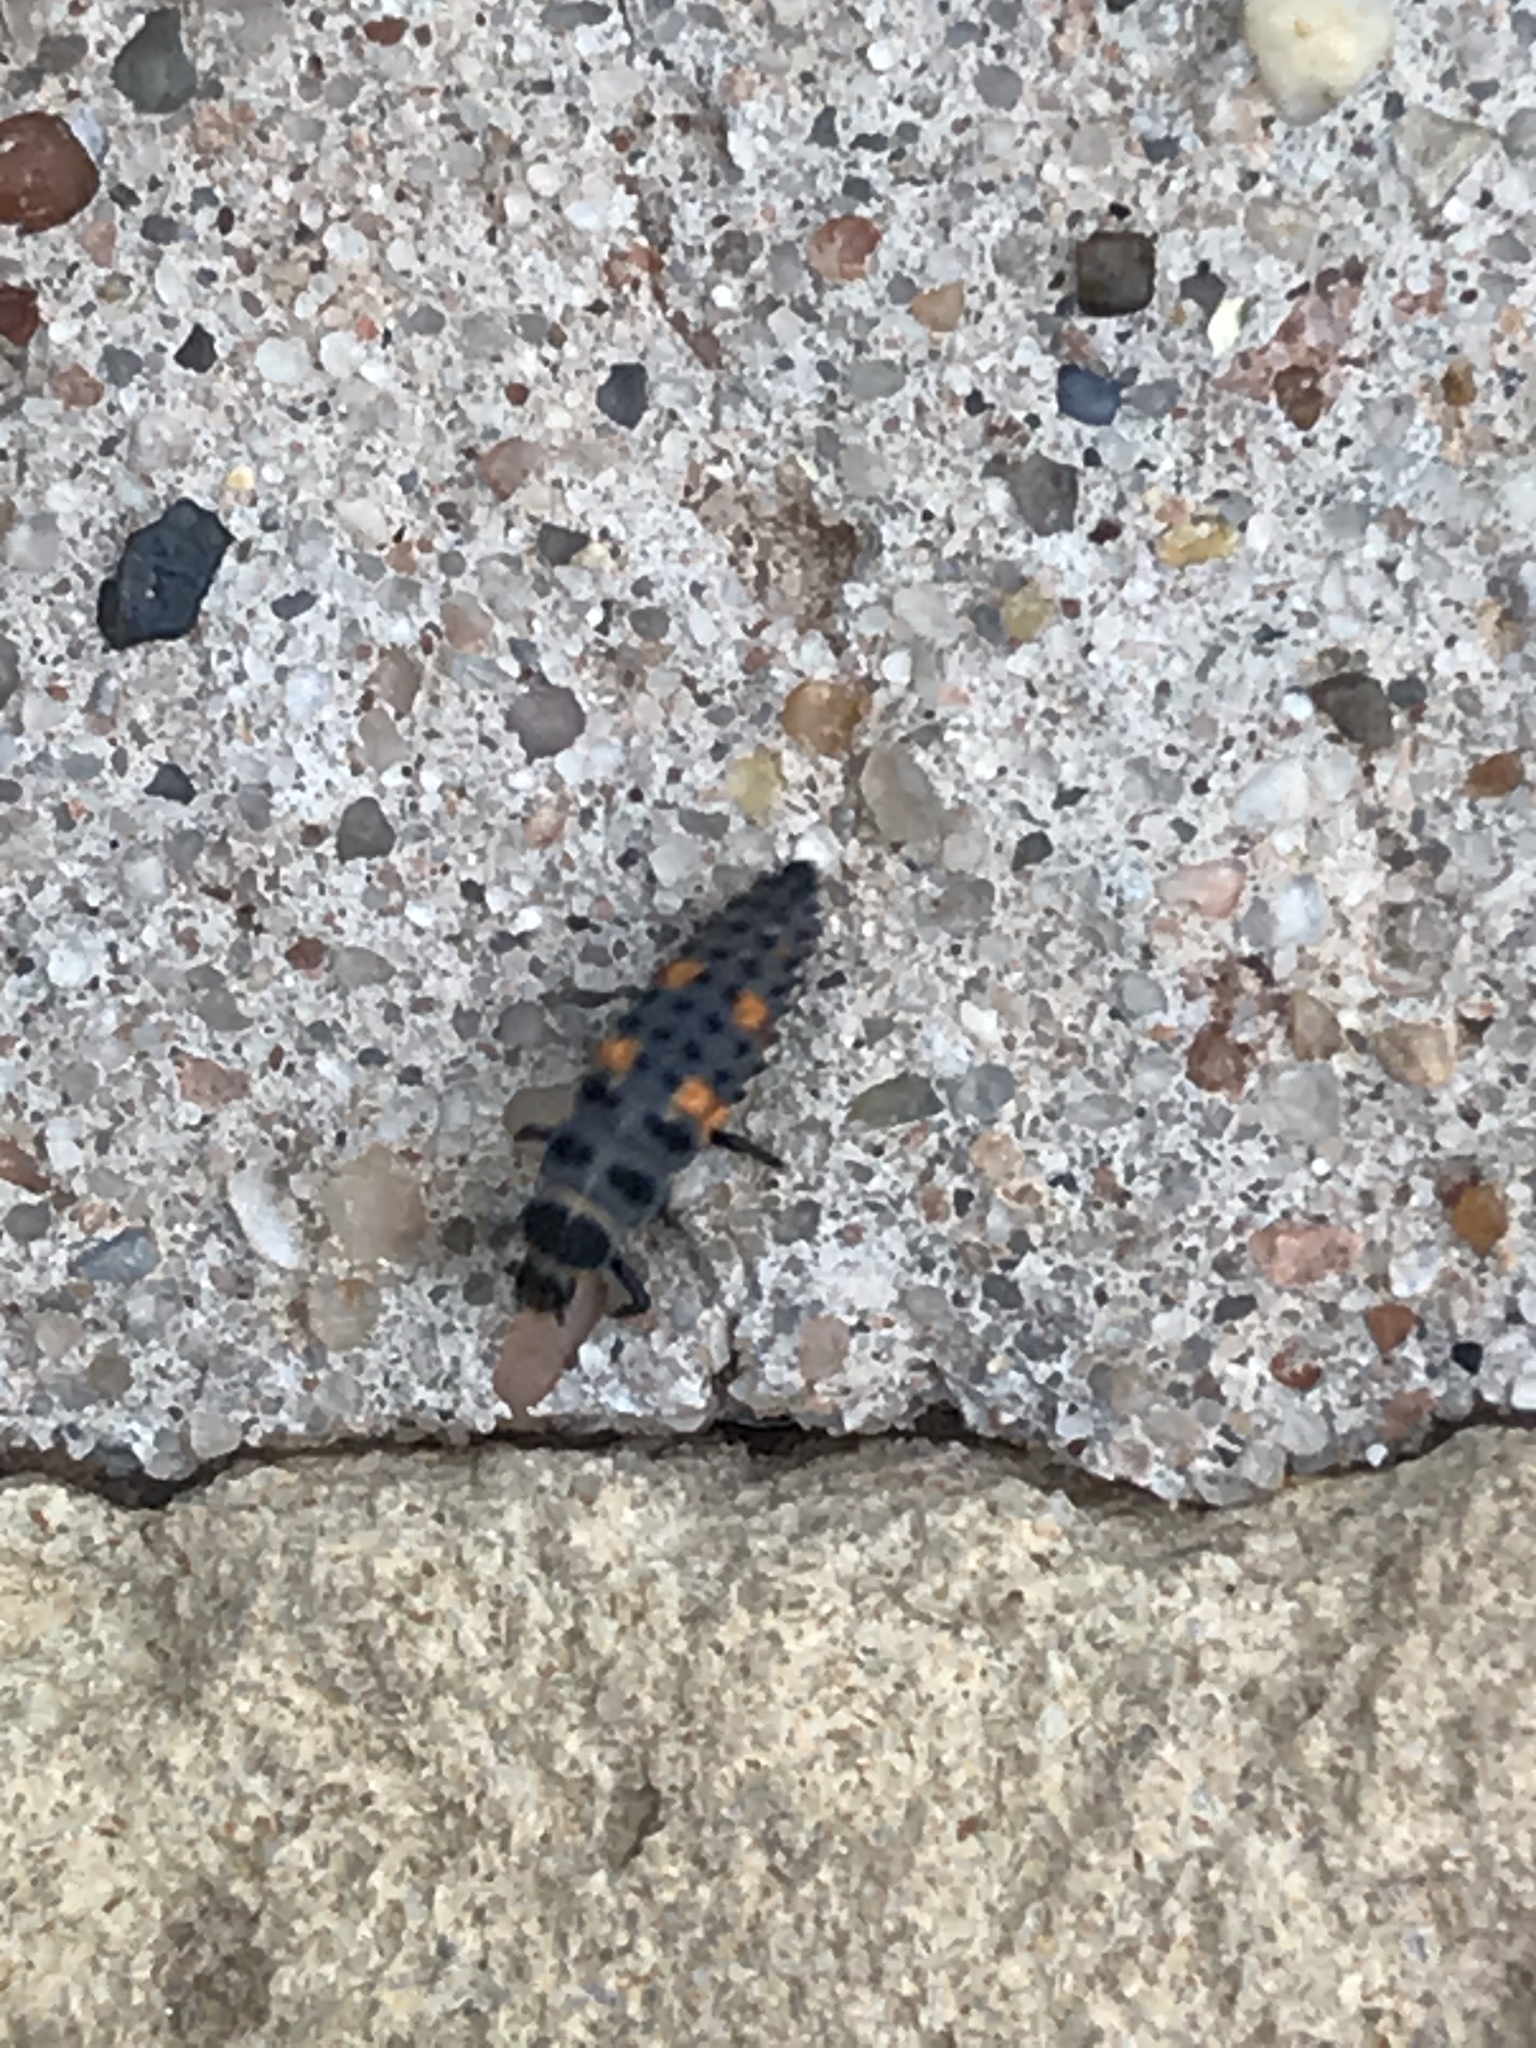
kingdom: Animalia
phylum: Arthropoda
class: Insecta
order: Coleoptera
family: Coccinellidae
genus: Coccinella
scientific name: Coccinella septempunctata
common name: Sevenspotted lady beetle
